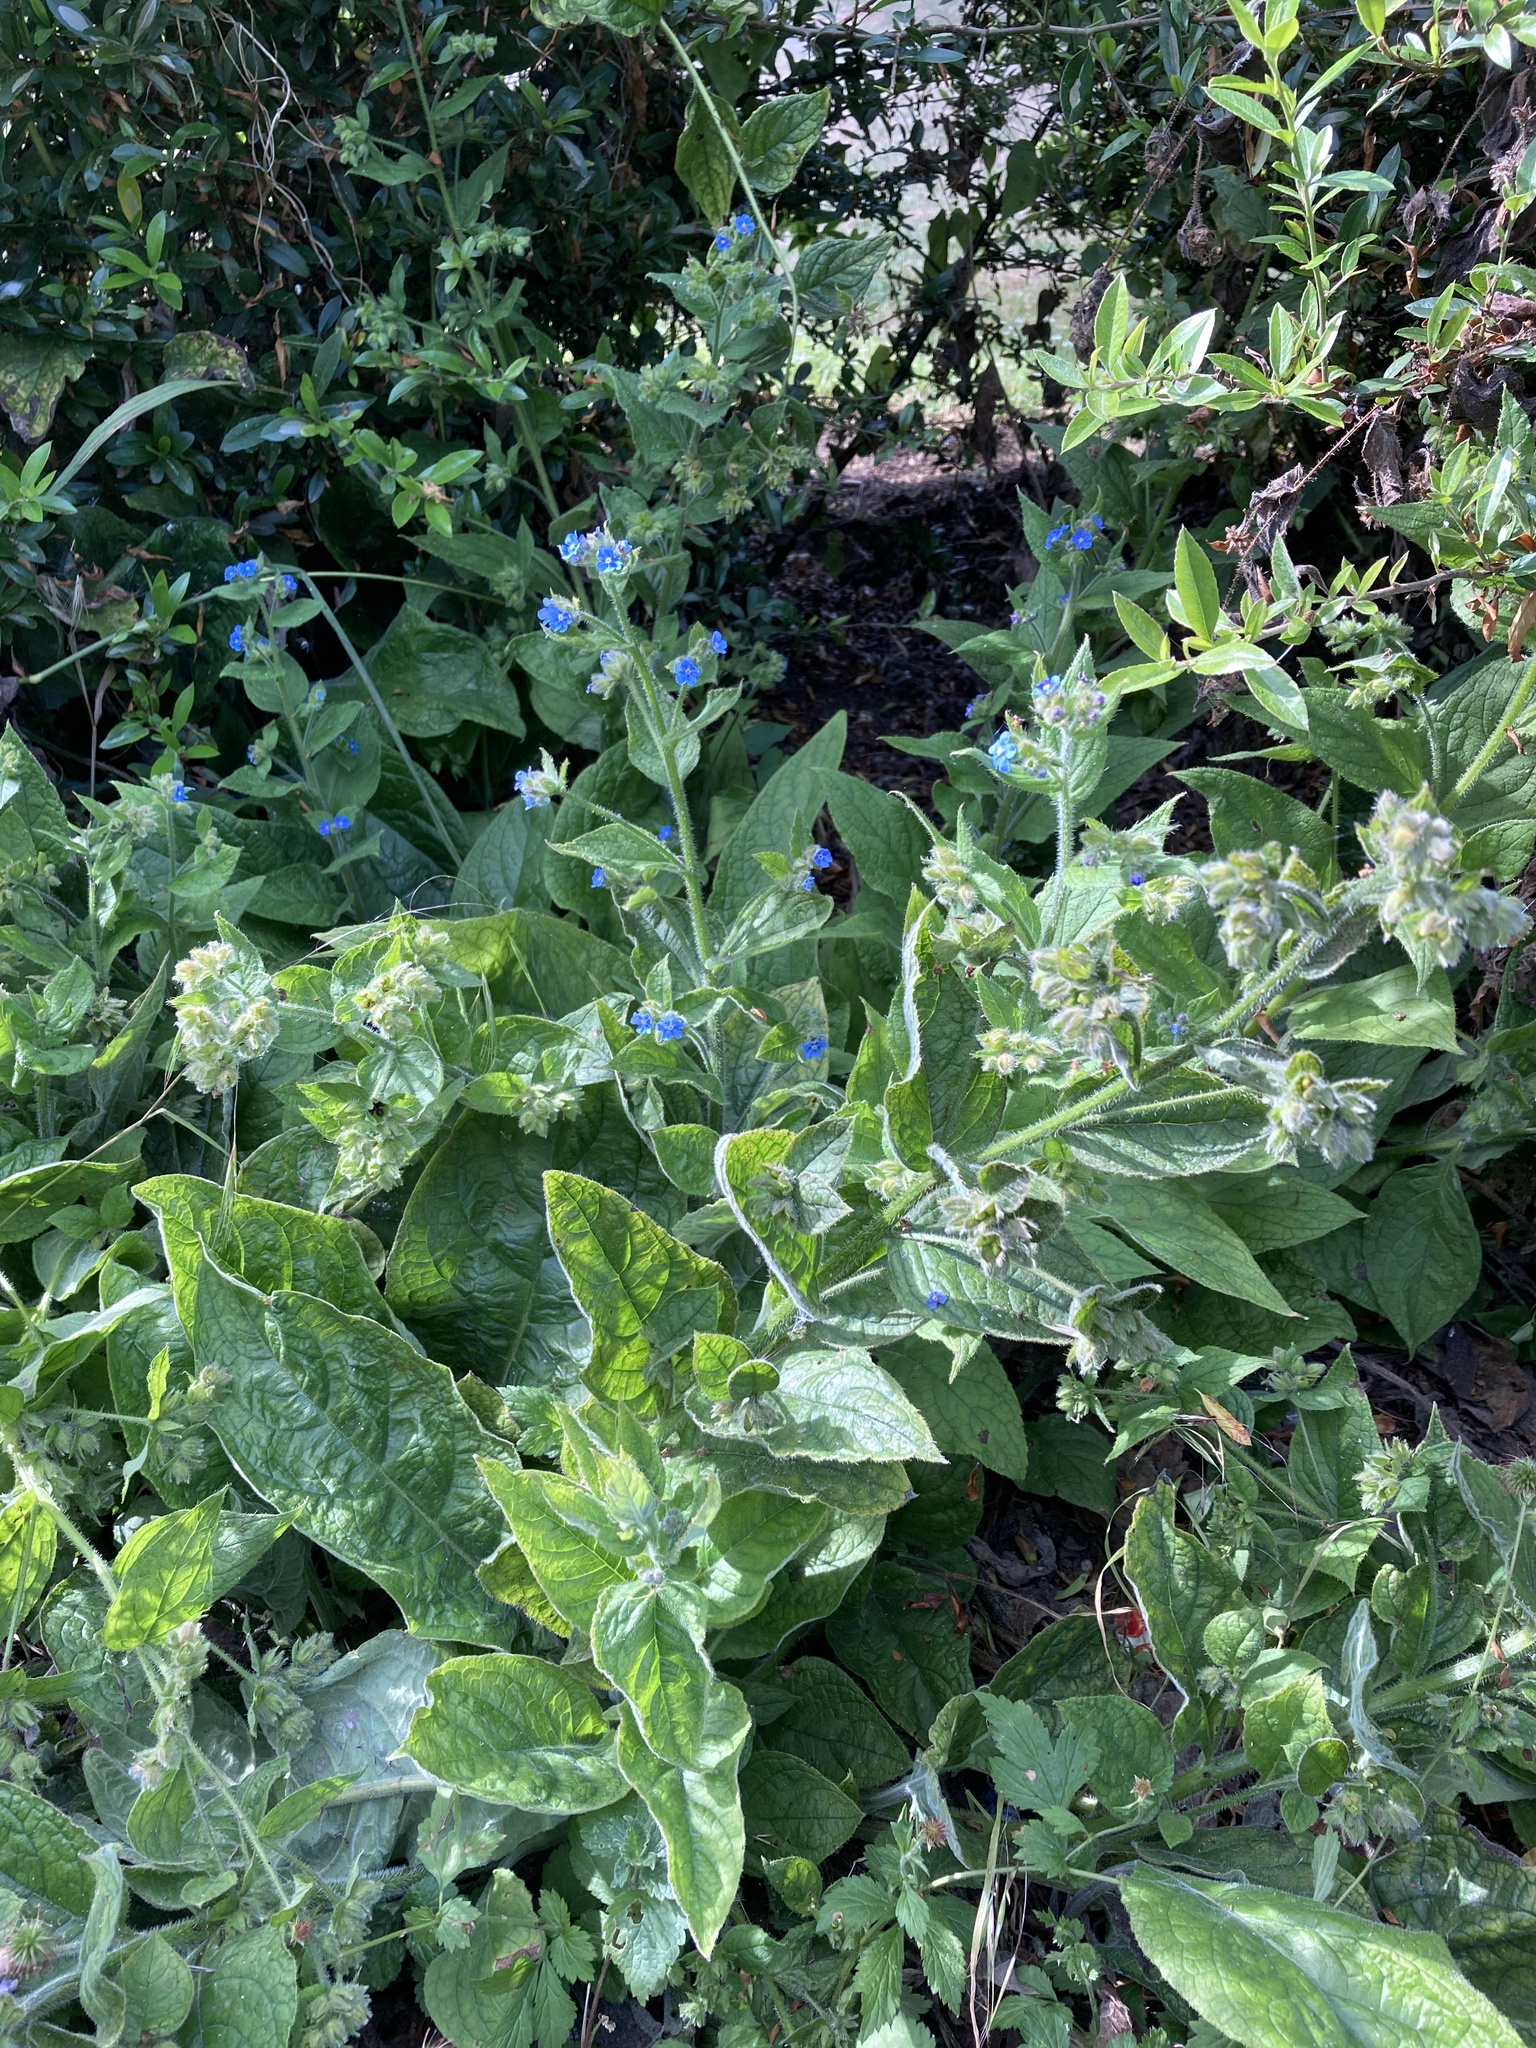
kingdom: Plantae
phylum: Tracheophyta
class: Magnoliopsida
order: Boraginales
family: Boraginaceae
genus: Pentaglottis
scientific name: Pentaglottis sempervirens
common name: Green alkanet
